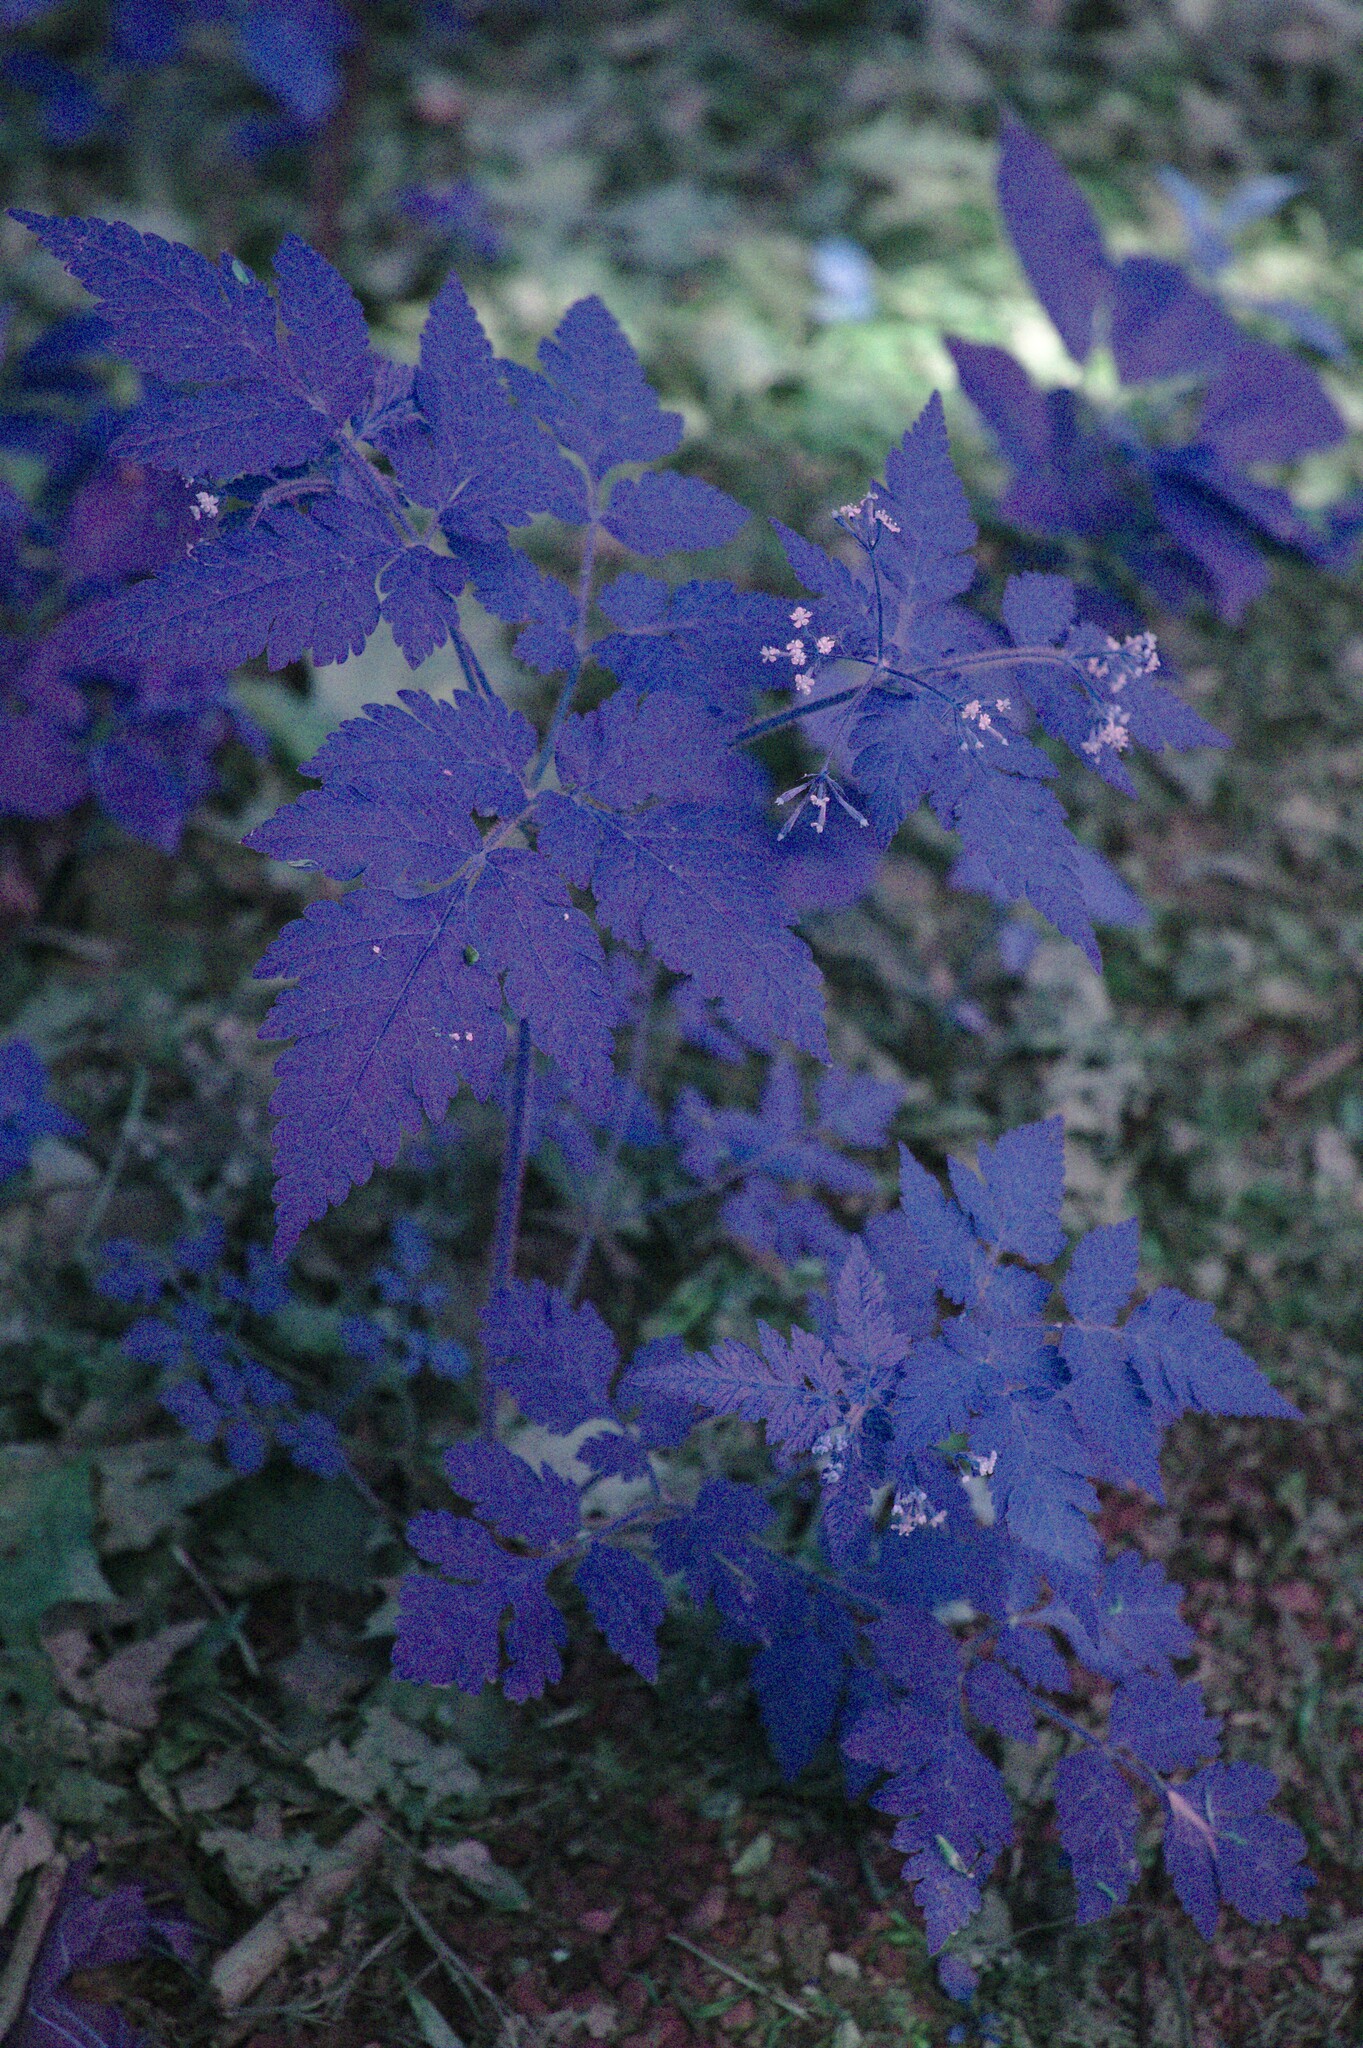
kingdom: Plantae
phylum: Tracheophyta
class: Magnoliopsida
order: Apiales
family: Apiaceae
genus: Osmorhiza
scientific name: Osmorhiza claytonii
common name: Hairy sweet cicely
